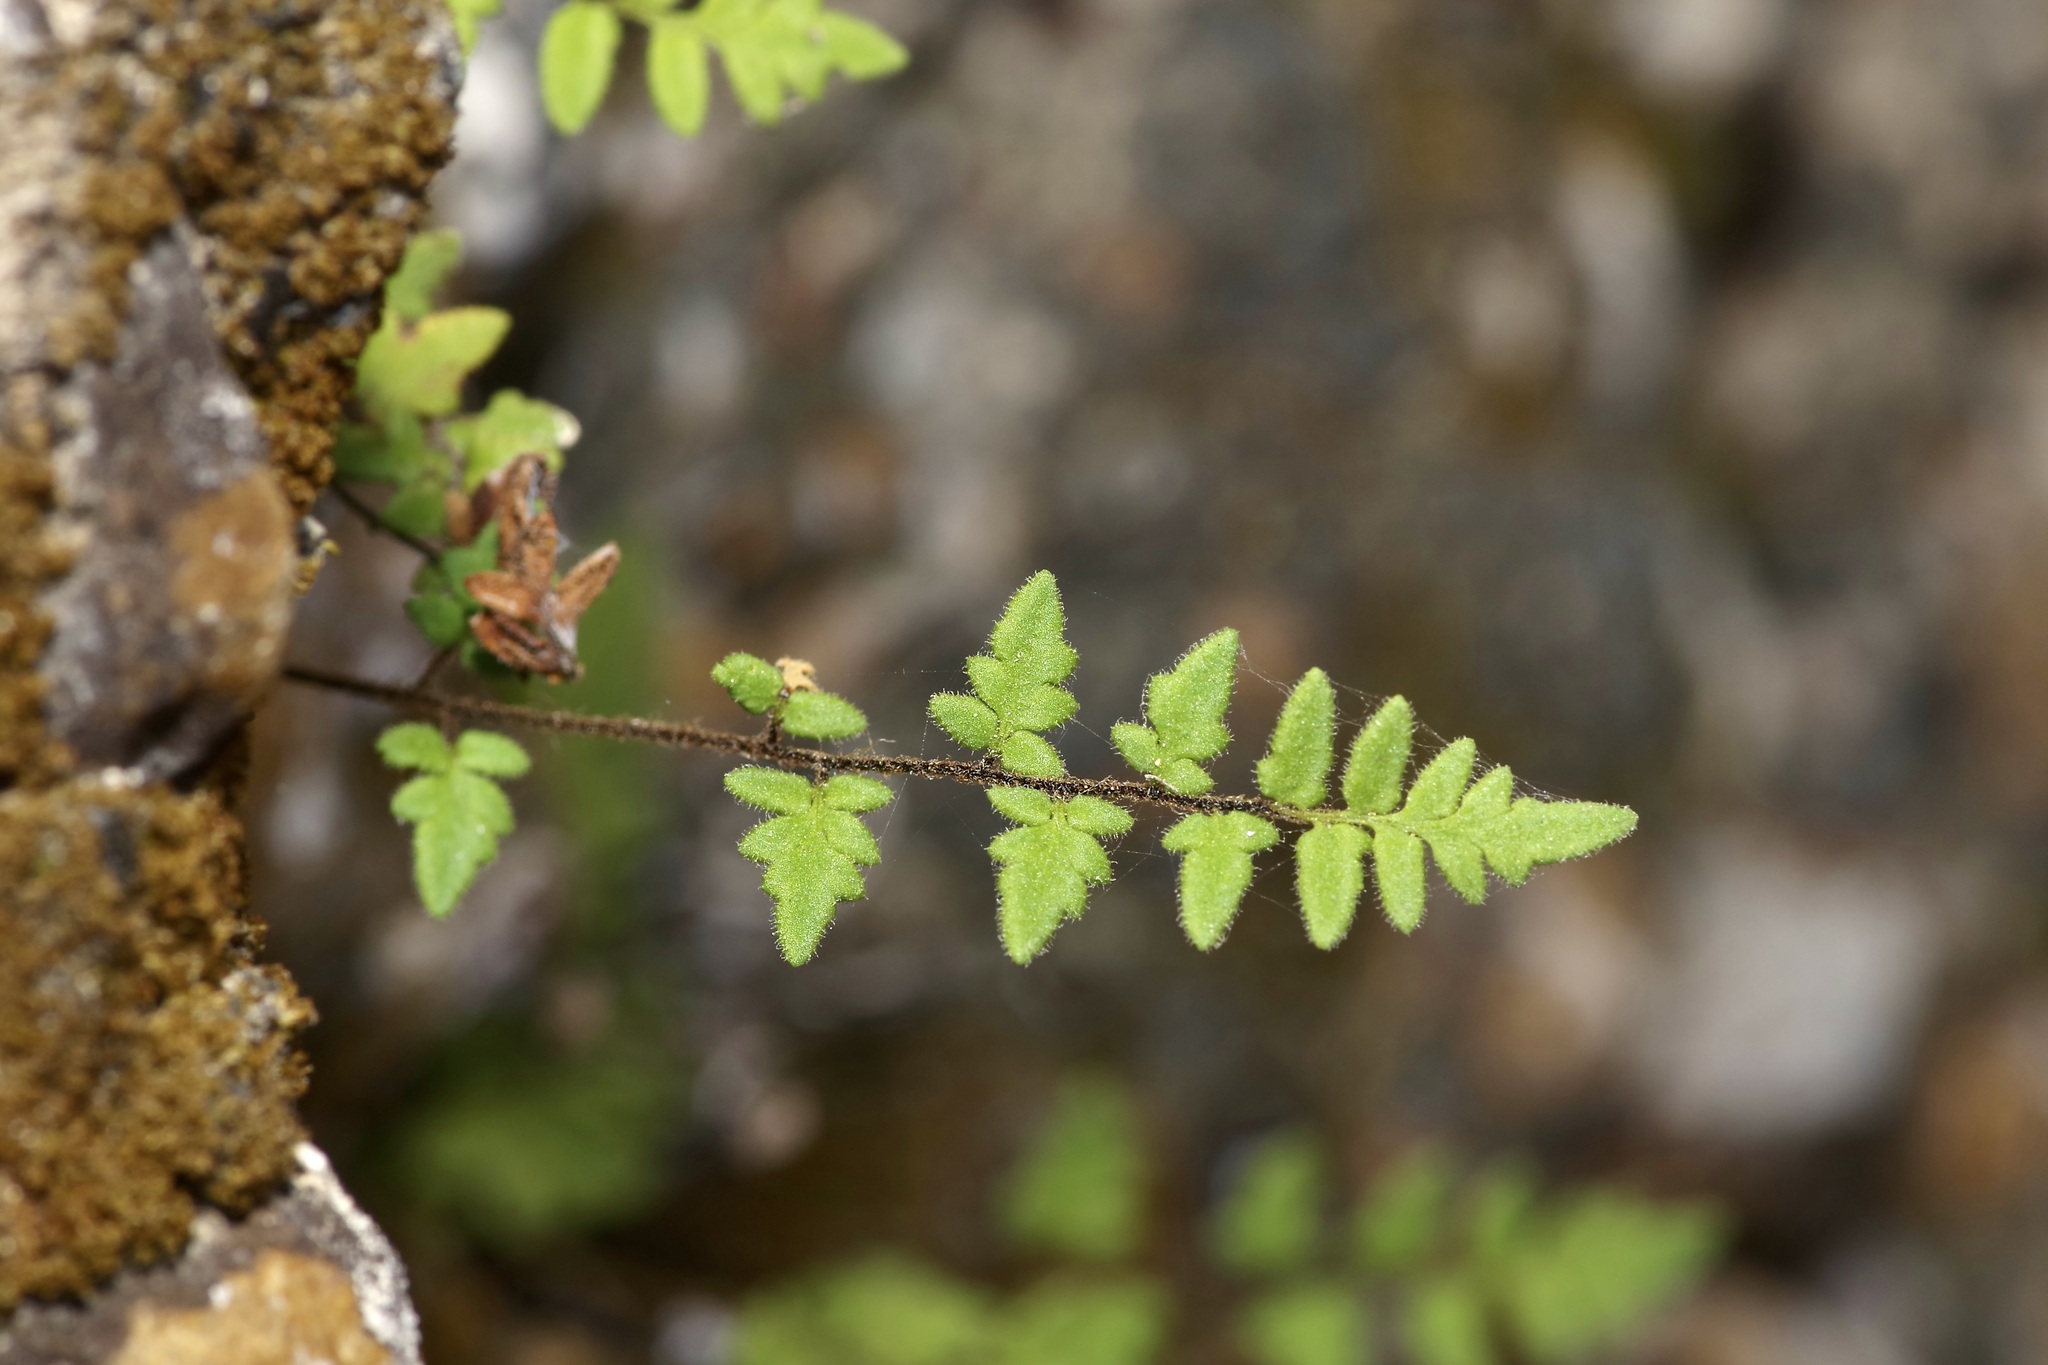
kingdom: Plantae
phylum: Tracheophyta
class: Polypodiopsida
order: Polypodiales
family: Pteridaceae
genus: Myriopteris
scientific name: Myriopteris scabra
